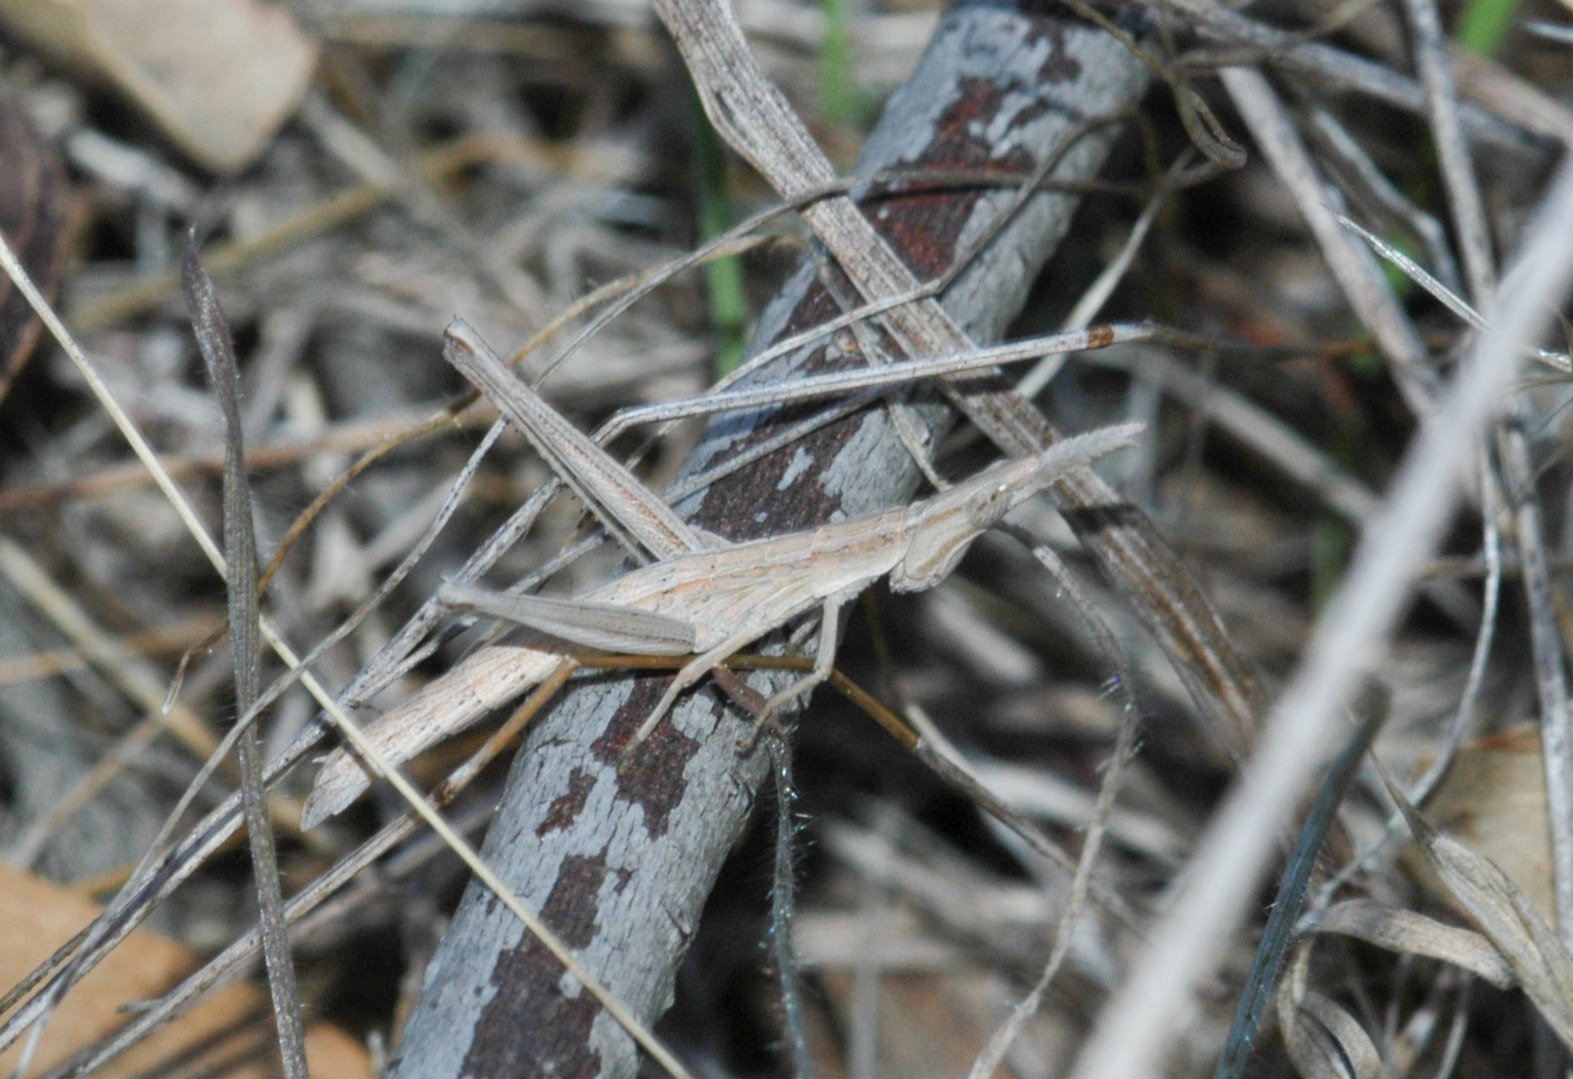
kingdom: Animalia
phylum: Arthropoda
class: Insecta
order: Orthoptera
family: Morabidae
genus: Vandiemenella
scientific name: Vandiemenella viatica
